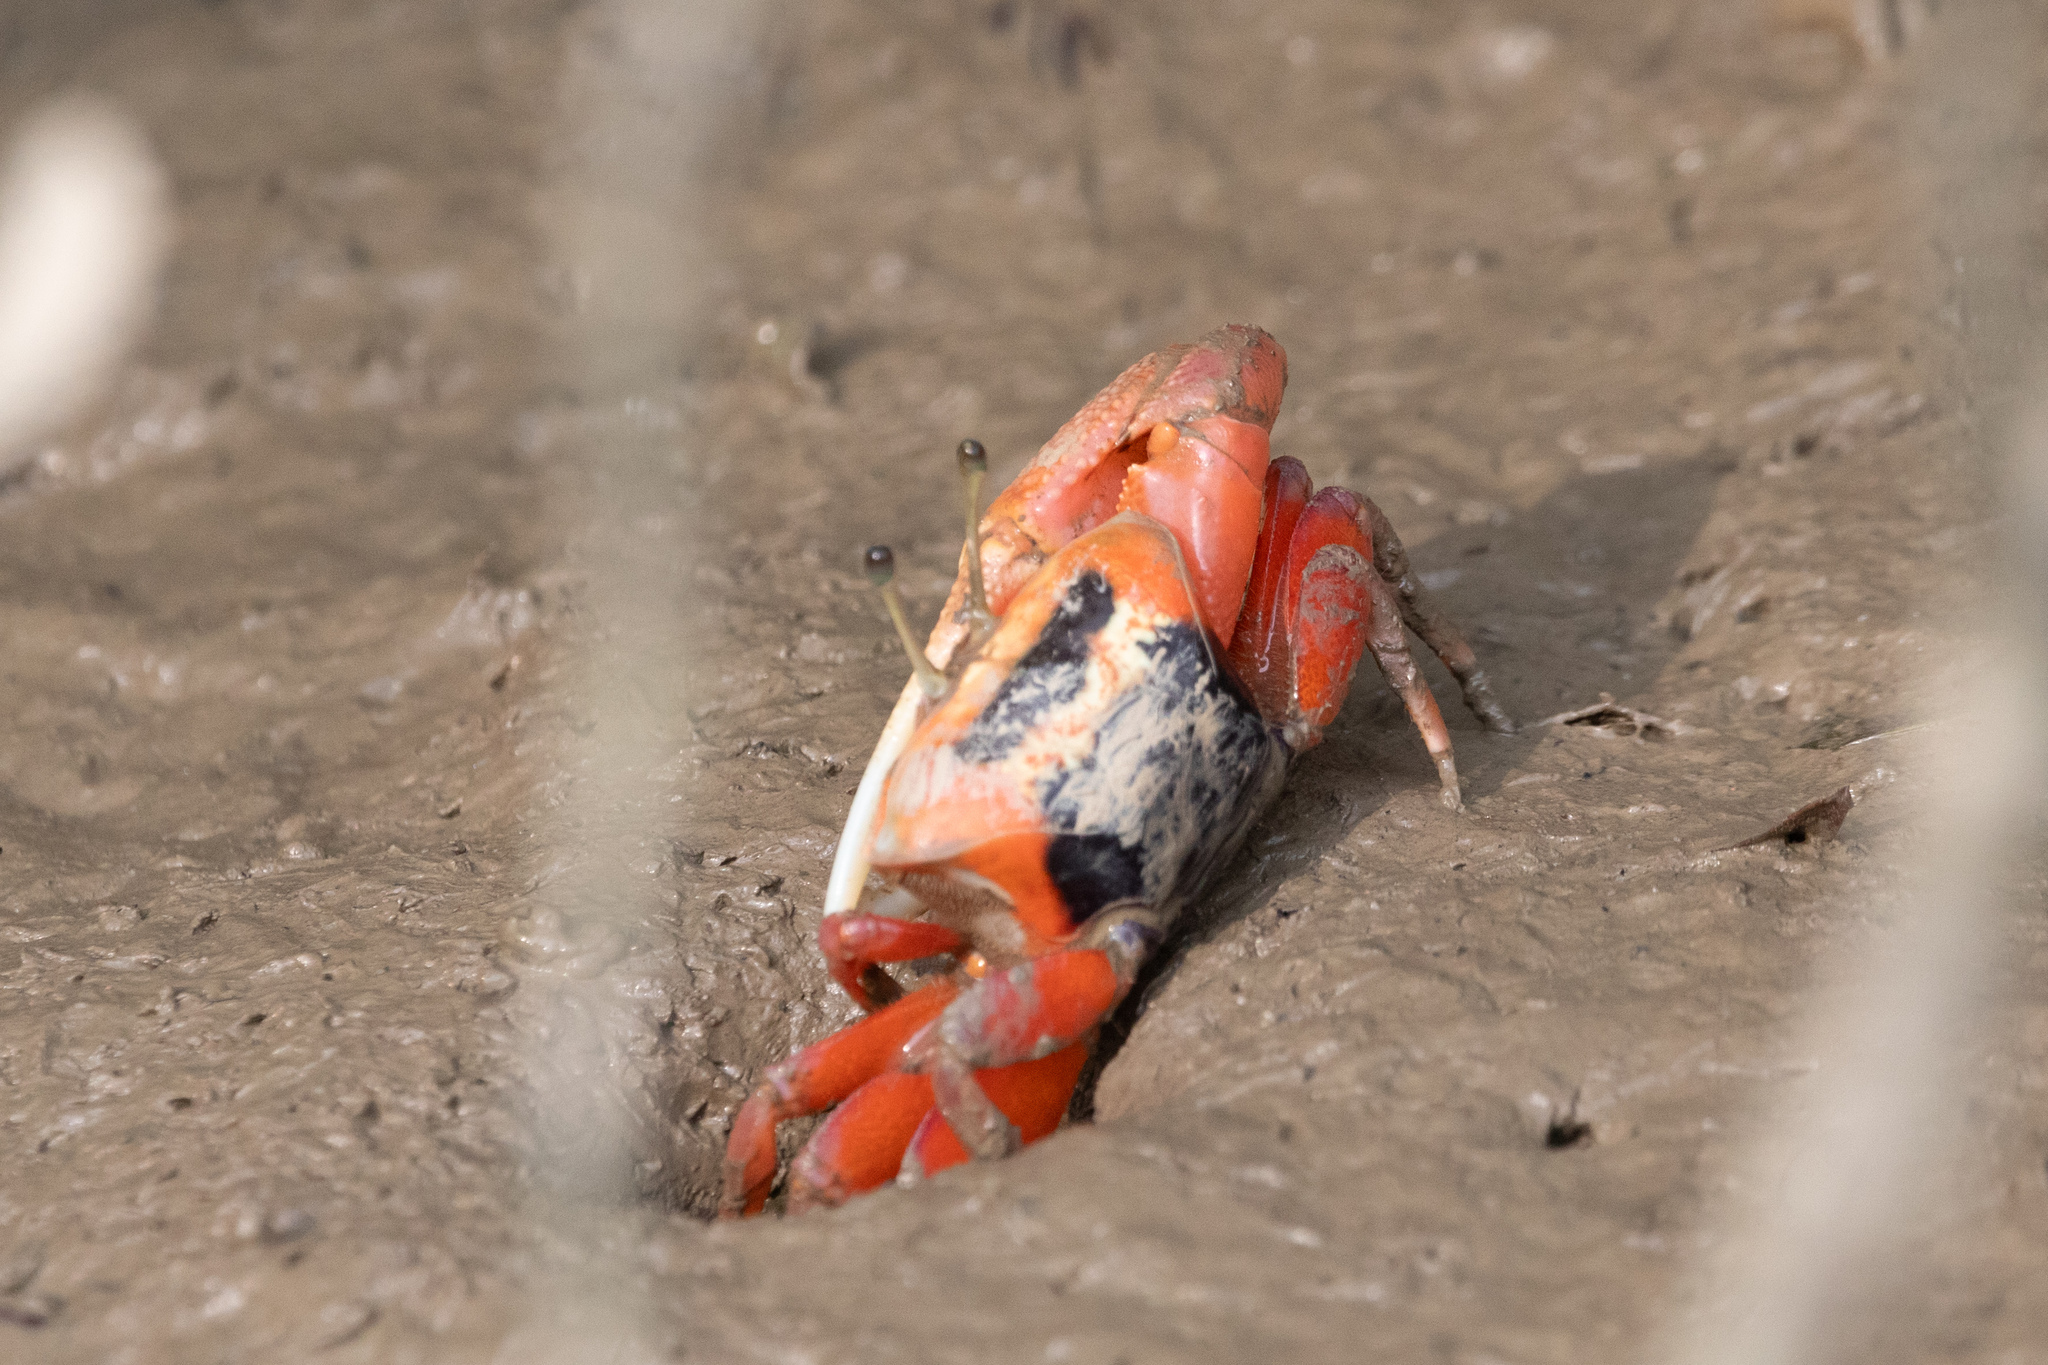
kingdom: Animalia
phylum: Arthropoda
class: Malacostraca
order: Decapoda
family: Ocypodidae
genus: Tubuca
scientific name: Tubuca arcuata
